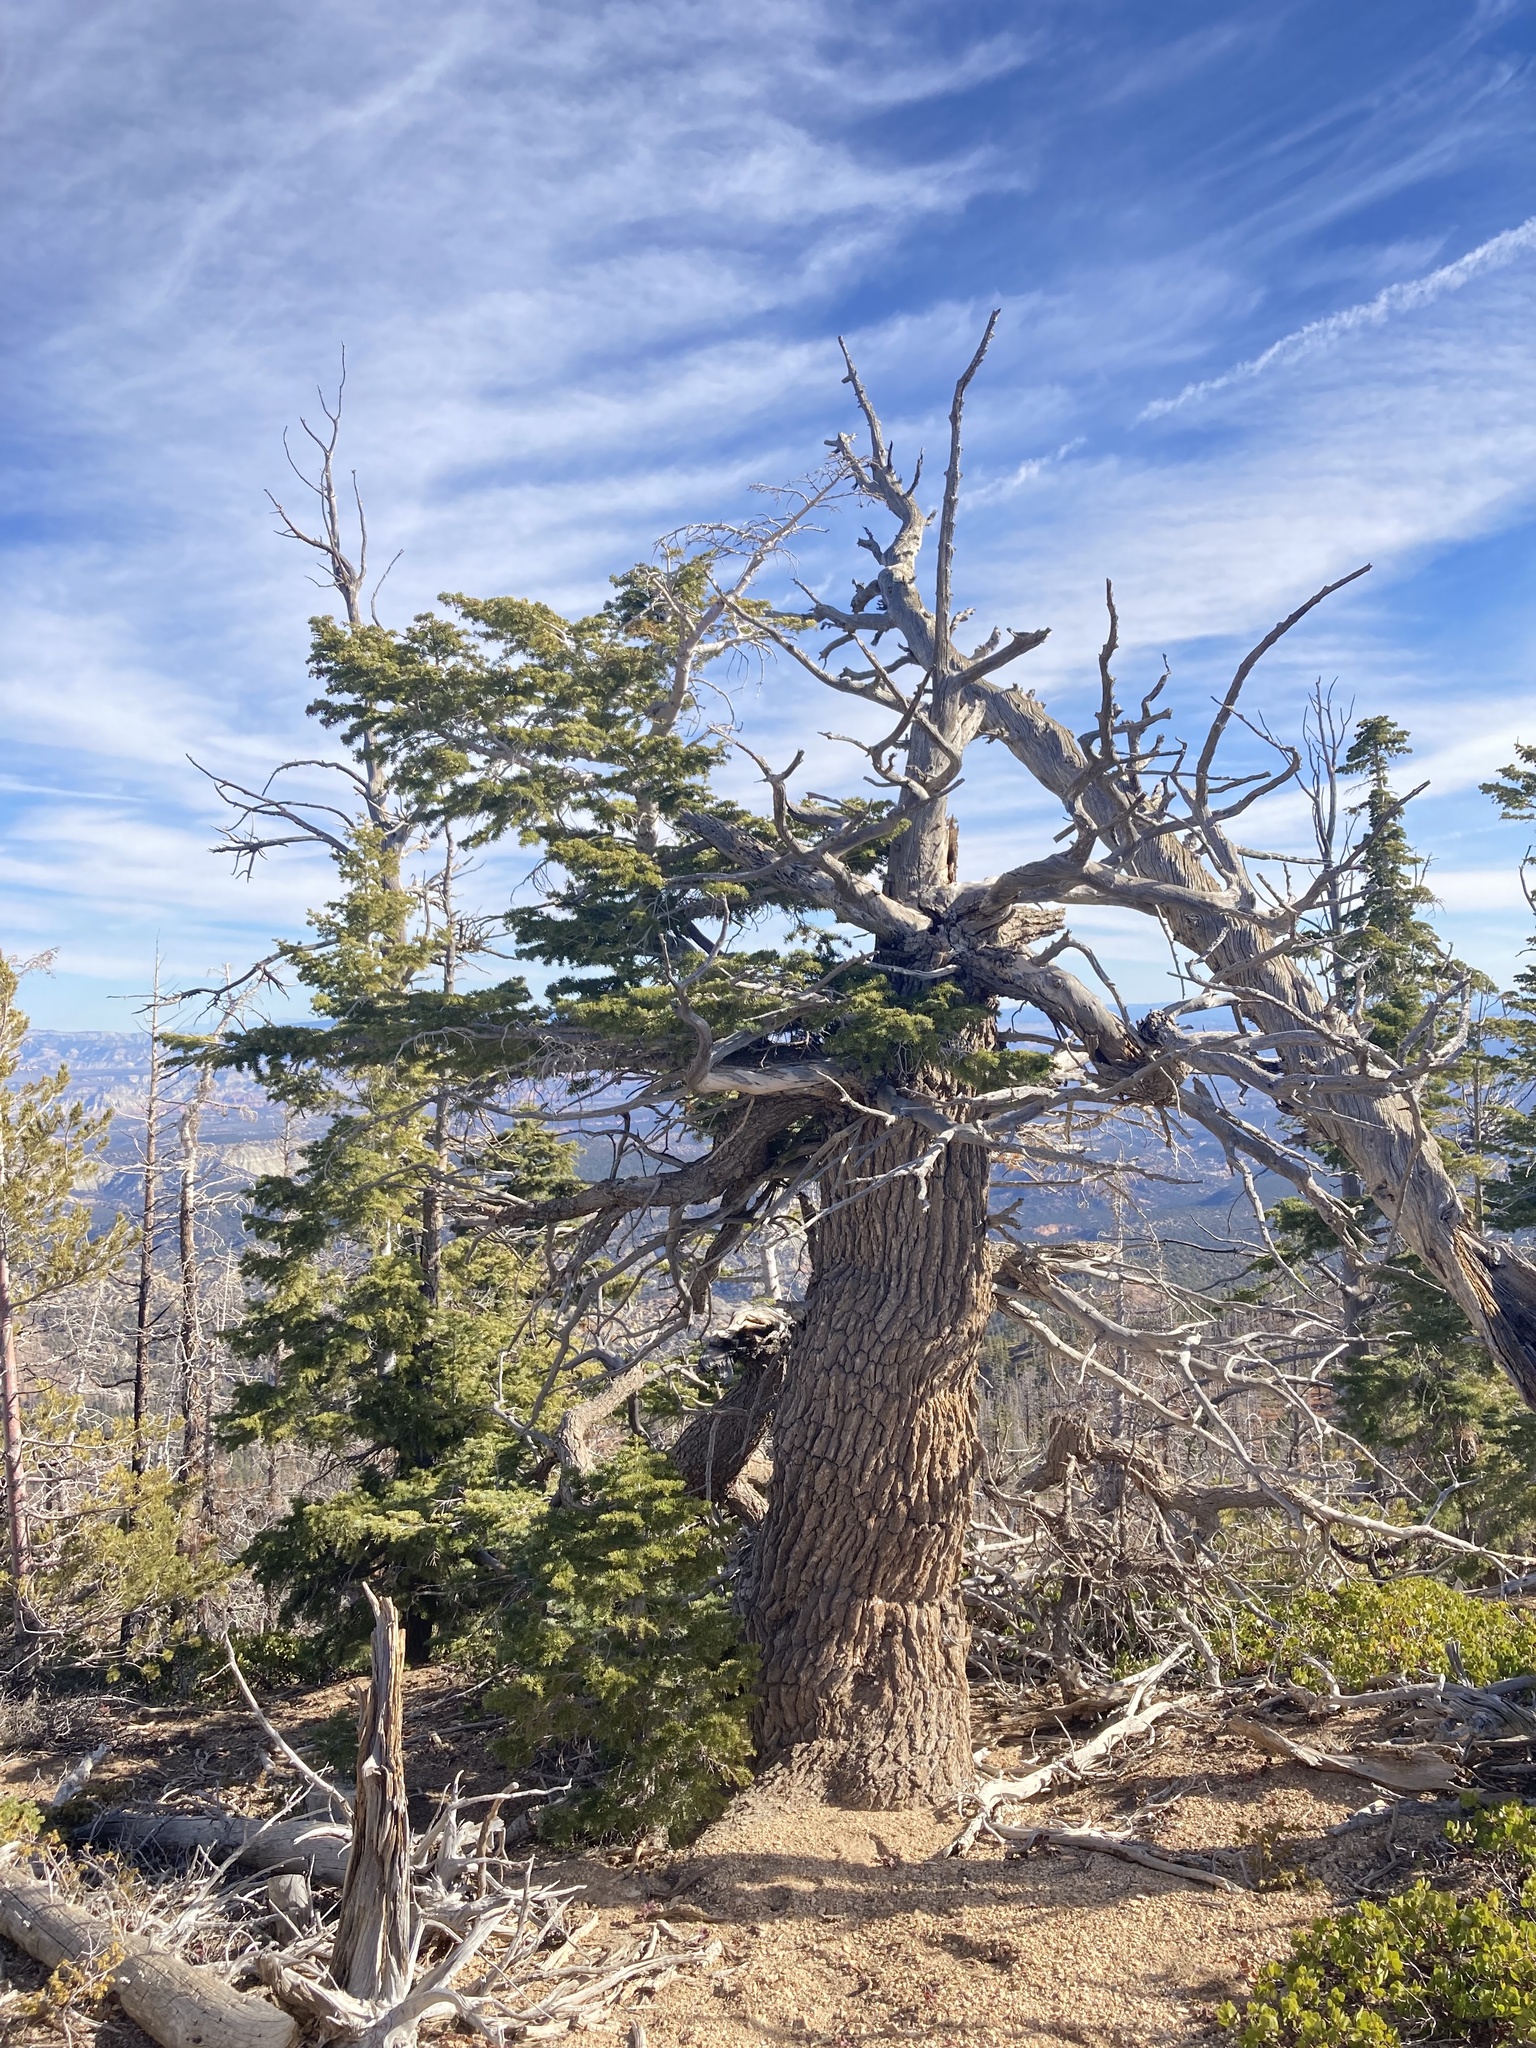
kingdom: Plantae
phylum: Tracheophyta
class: Pinopsida
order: Pinales
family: Pinaceae
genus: Pseudotsuga
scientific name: Pseudotsuga menziesii
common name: Douglas fir
